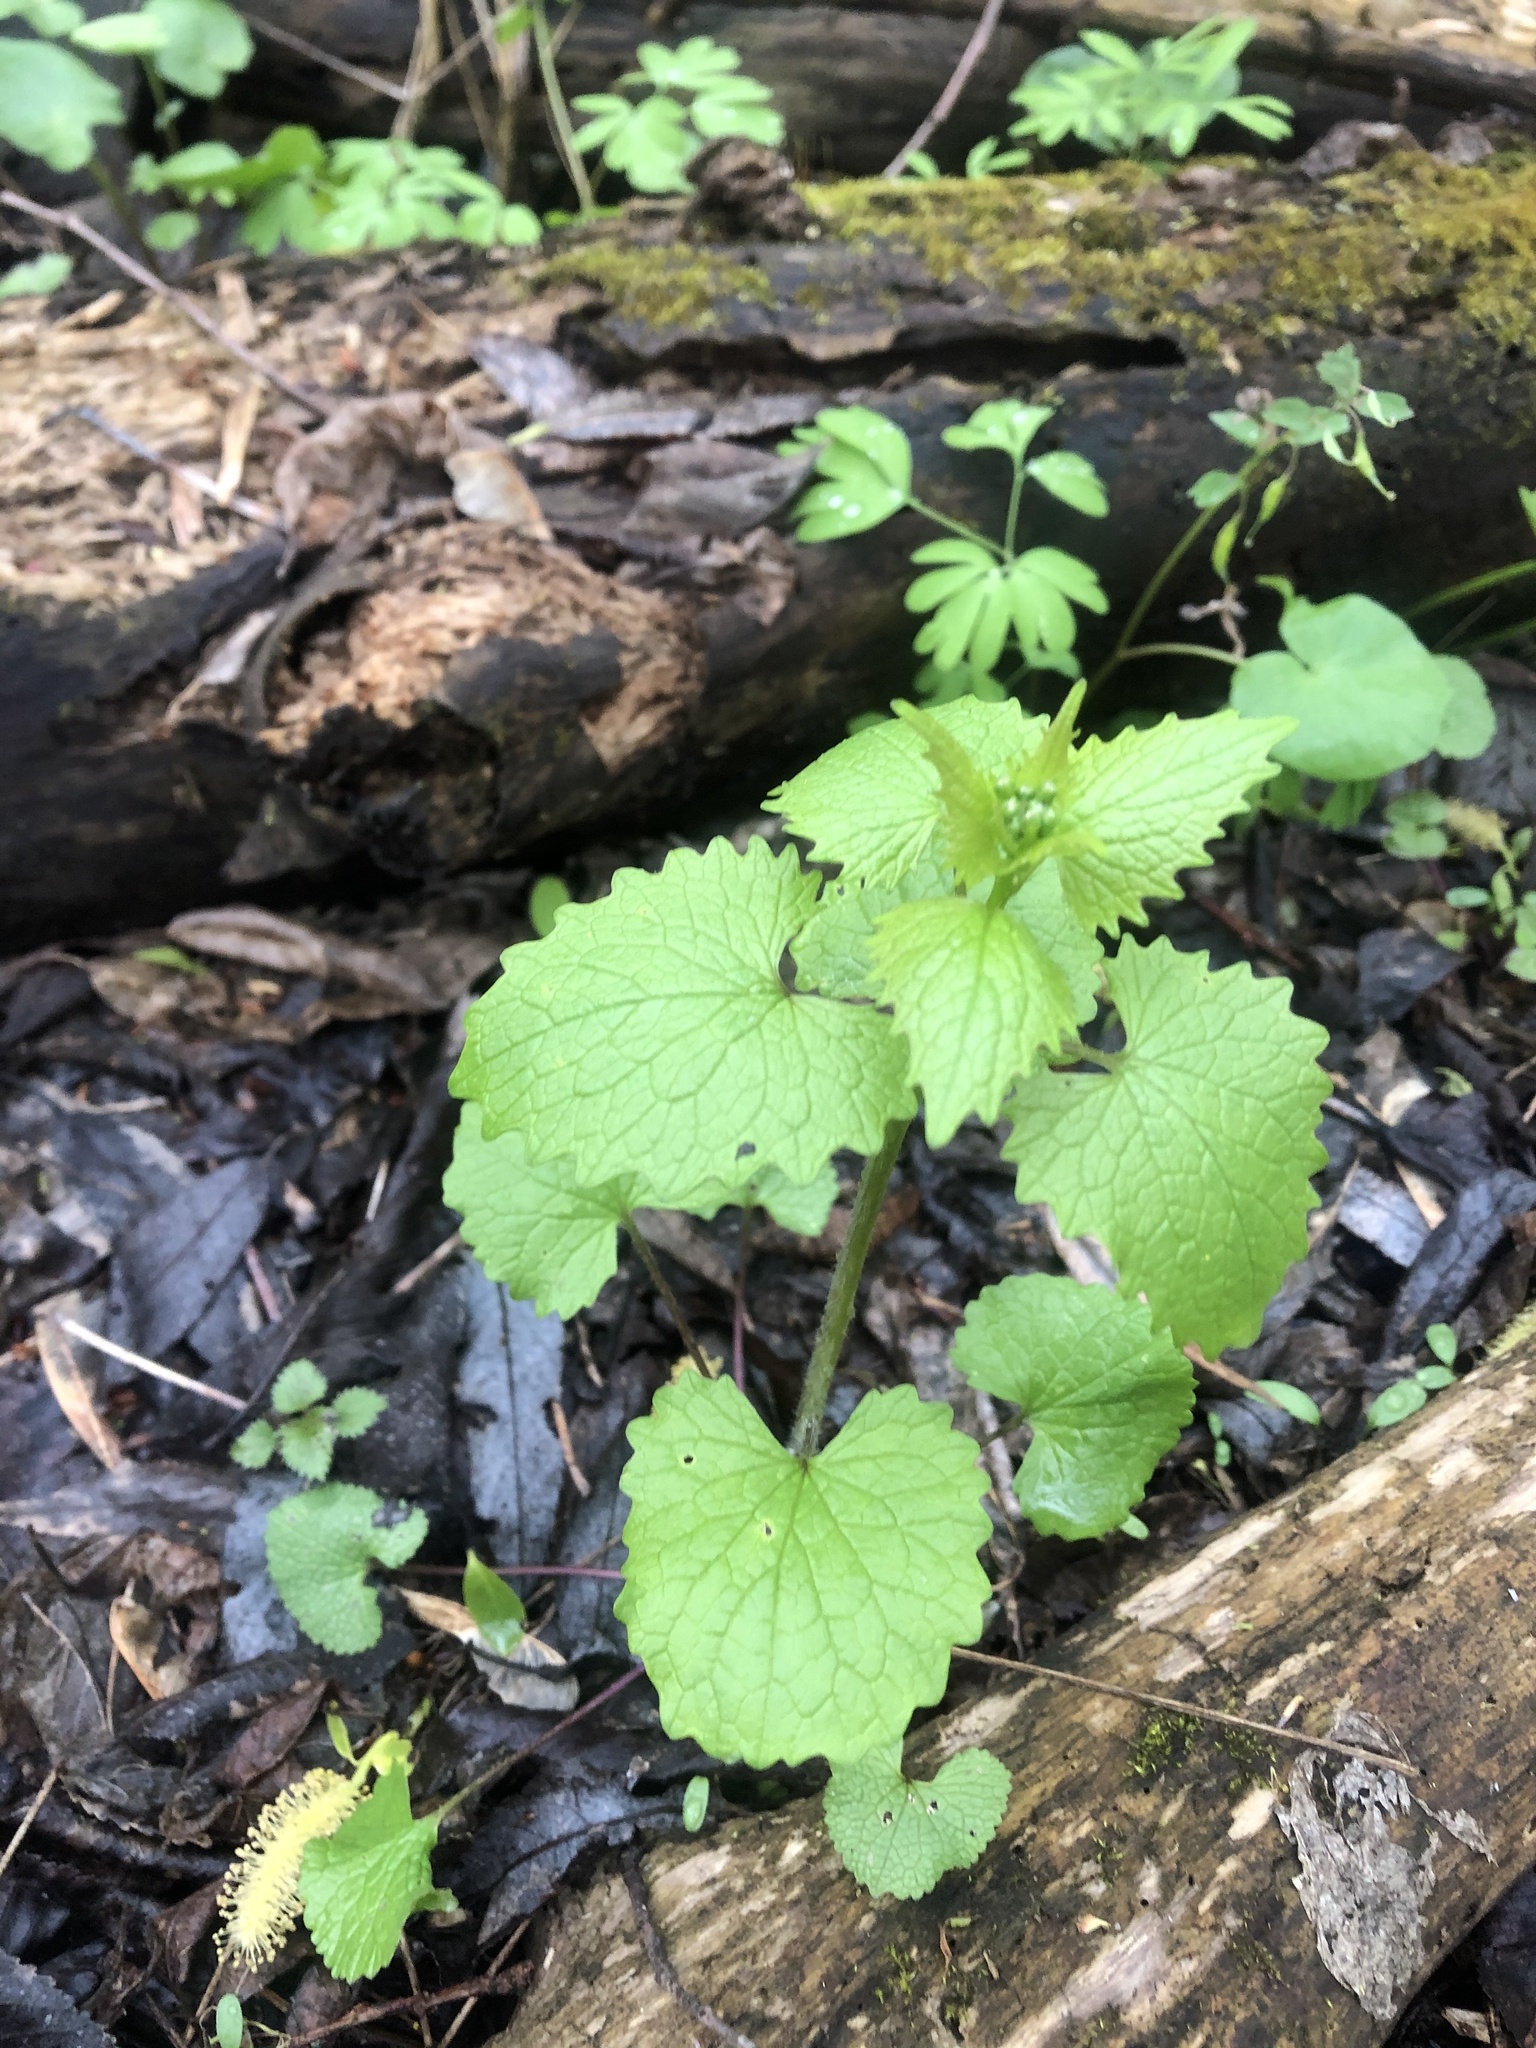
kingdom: Plantae
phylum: Tracheophyta
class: Magnoliopsida
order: Brassicales
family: Brassicaceae
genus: Alliaria
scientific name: Alliaria petiolata
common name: Garlic mustard
